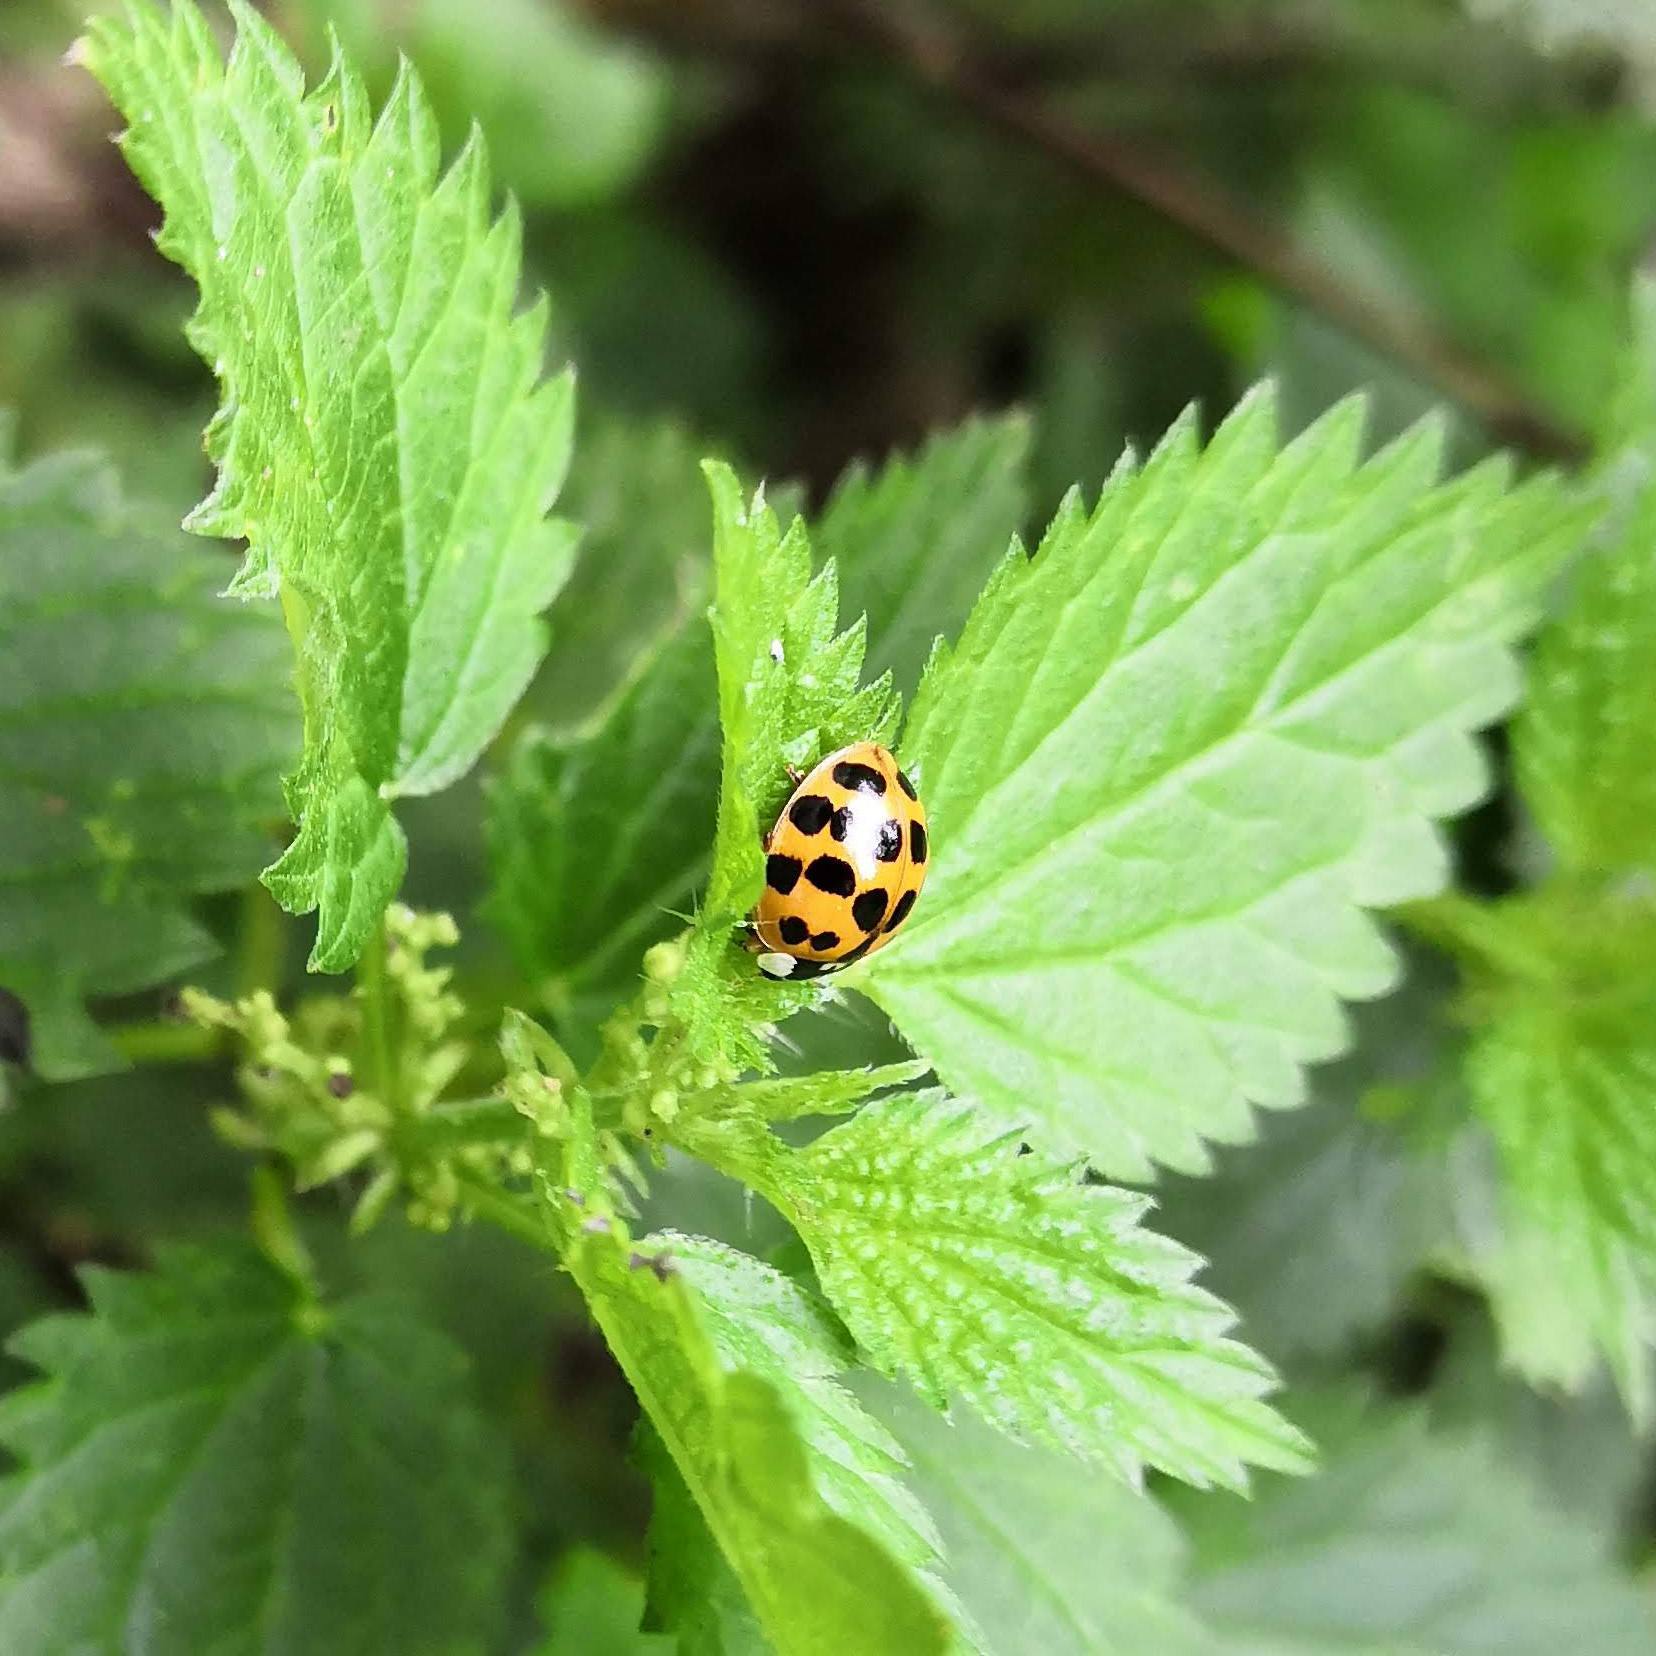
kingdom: Animalia
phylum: Arthropoda
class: Insecta
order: Coleoptera
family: Coccinellidae
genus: Harmonia
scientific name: Harmonia axyridis
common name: Harlequin ladybird
